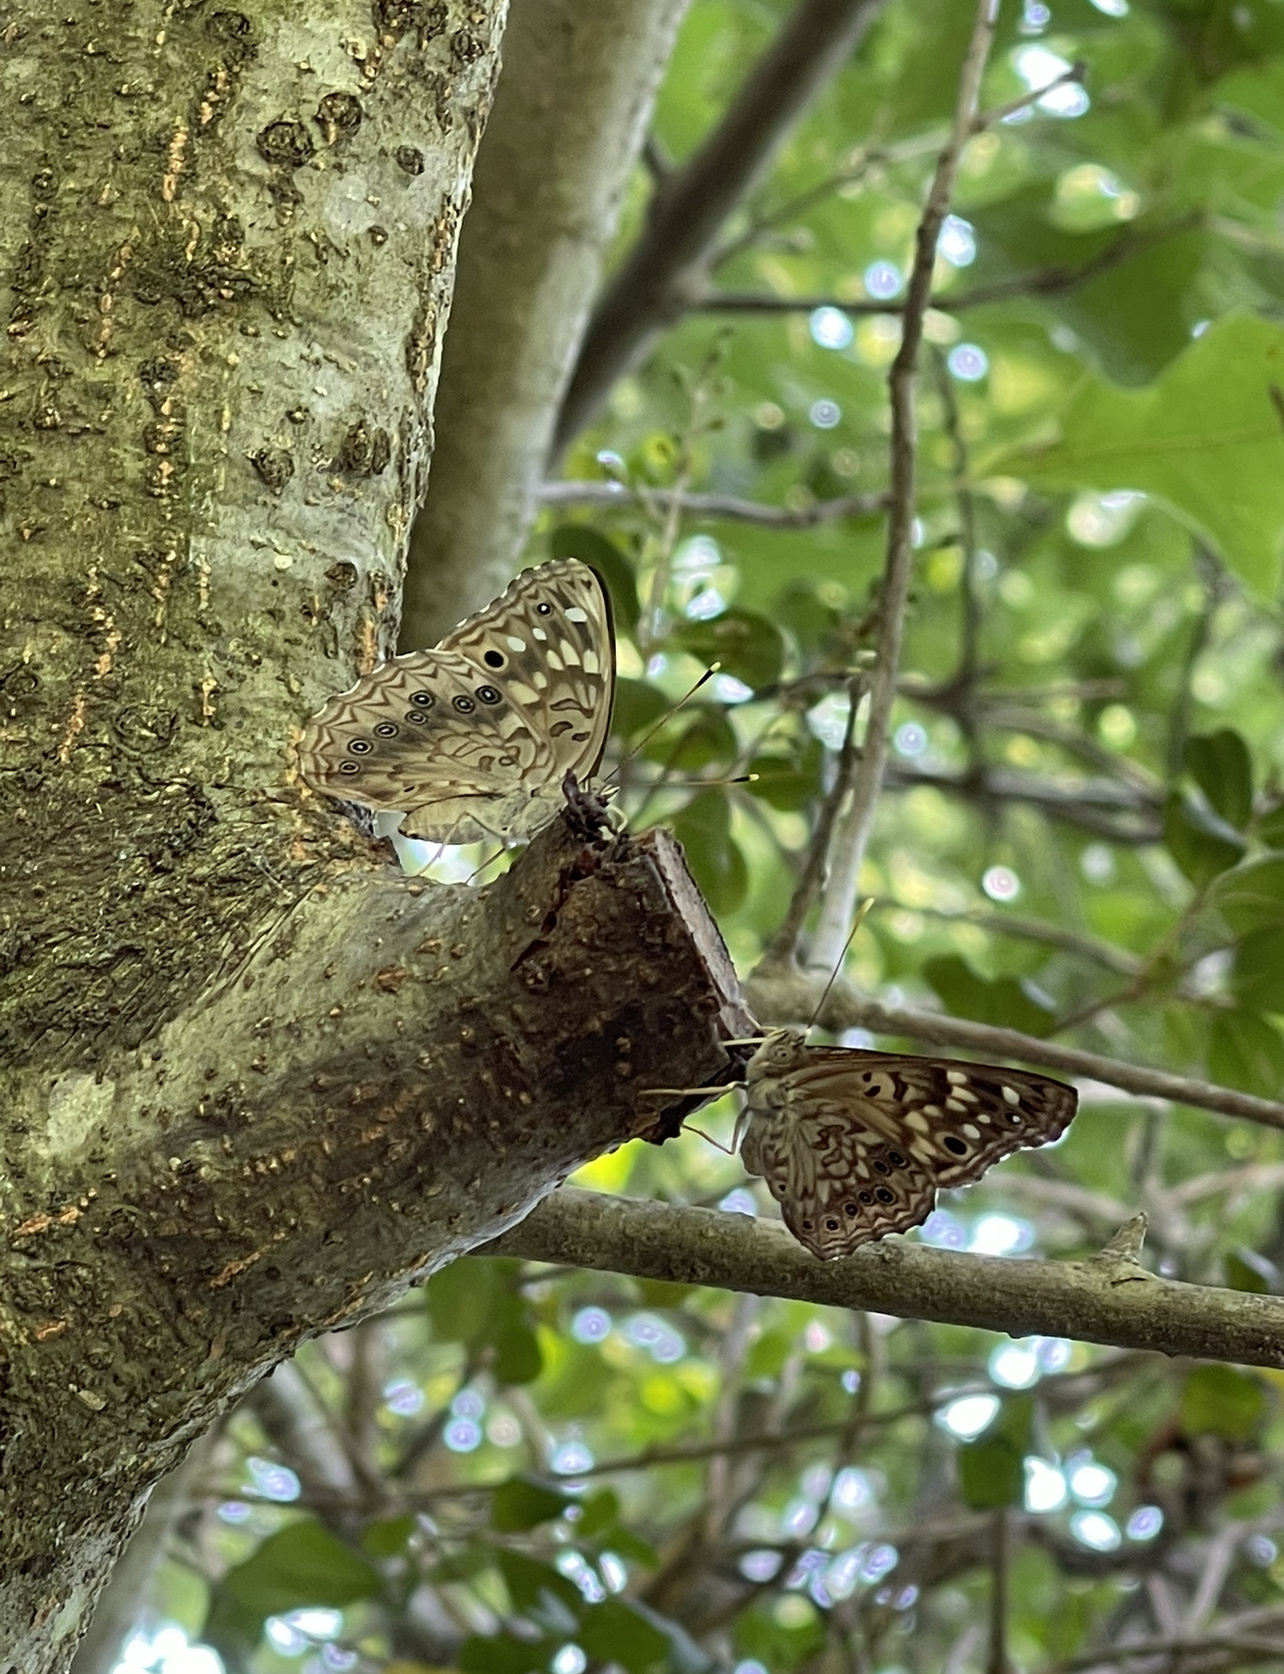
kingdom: Animalia
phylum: Arthropoda
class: Insecta
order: Lepidoptera
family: Nymphalidae
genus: Asterocampa
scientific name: Asterocampa celtis
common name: Hackberry emperor
